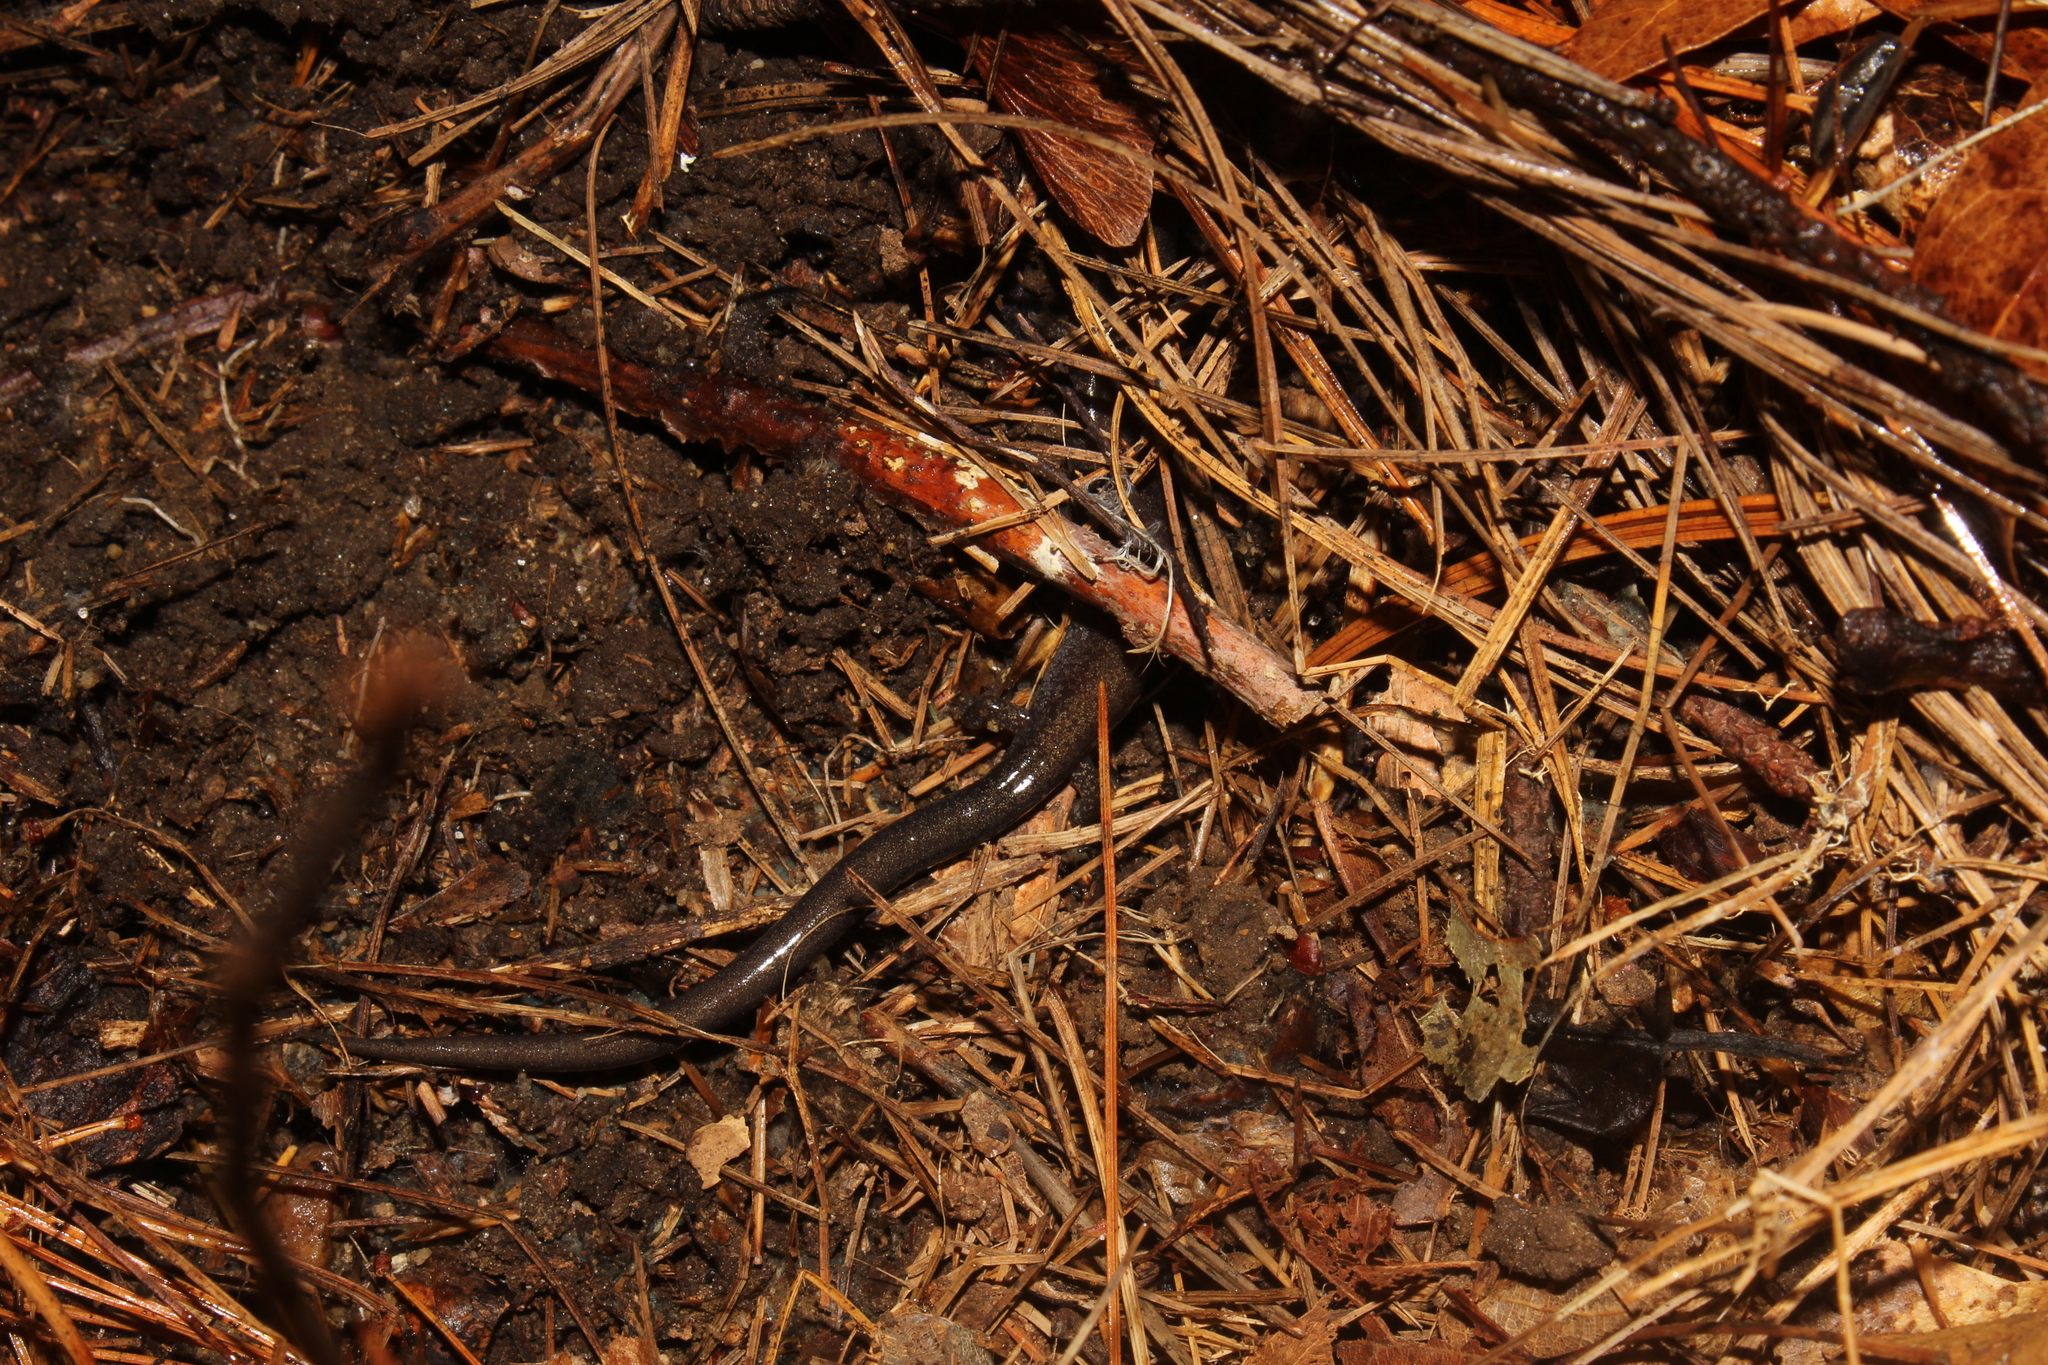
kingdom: Animalia
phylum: Chordata
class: Amphibia
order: Caudata
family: Plethodontidae
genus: Plethodon
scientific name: Plethodon cinereus
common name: Redback salamander
